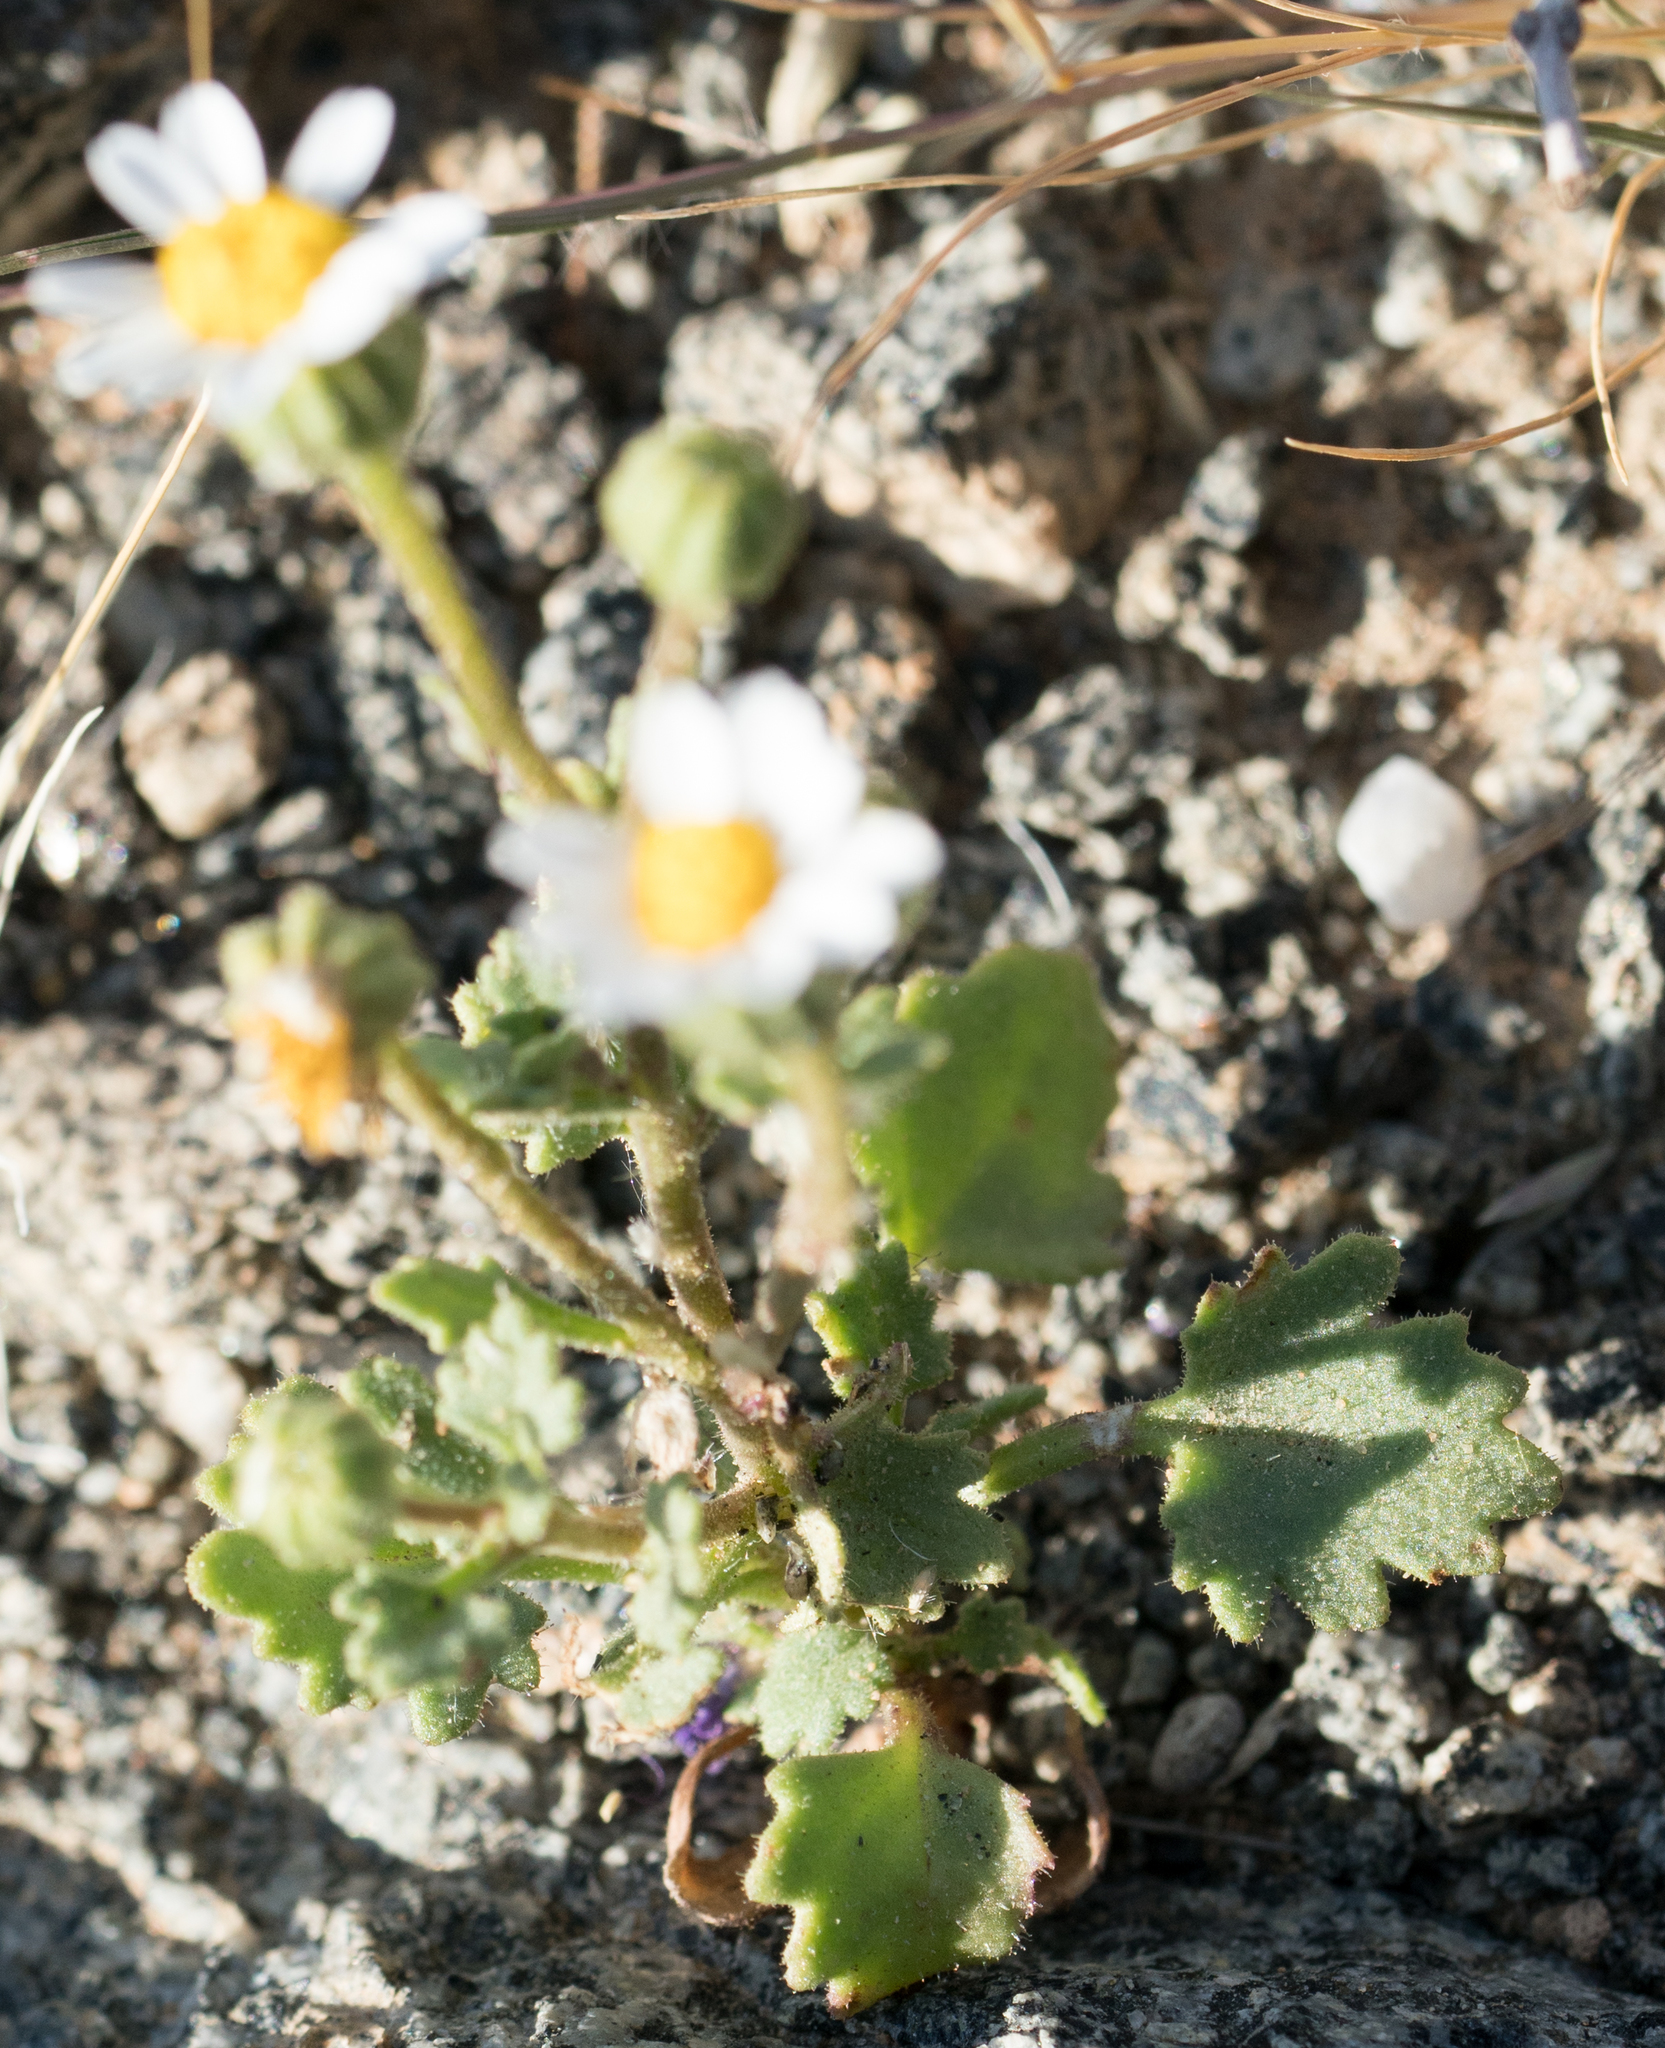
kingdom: Plantae
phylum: Tracheophyta
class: Magnoliopsida
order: Asterales
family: Asteraceae
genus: Laphamia
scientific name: Laphamia emoryi
